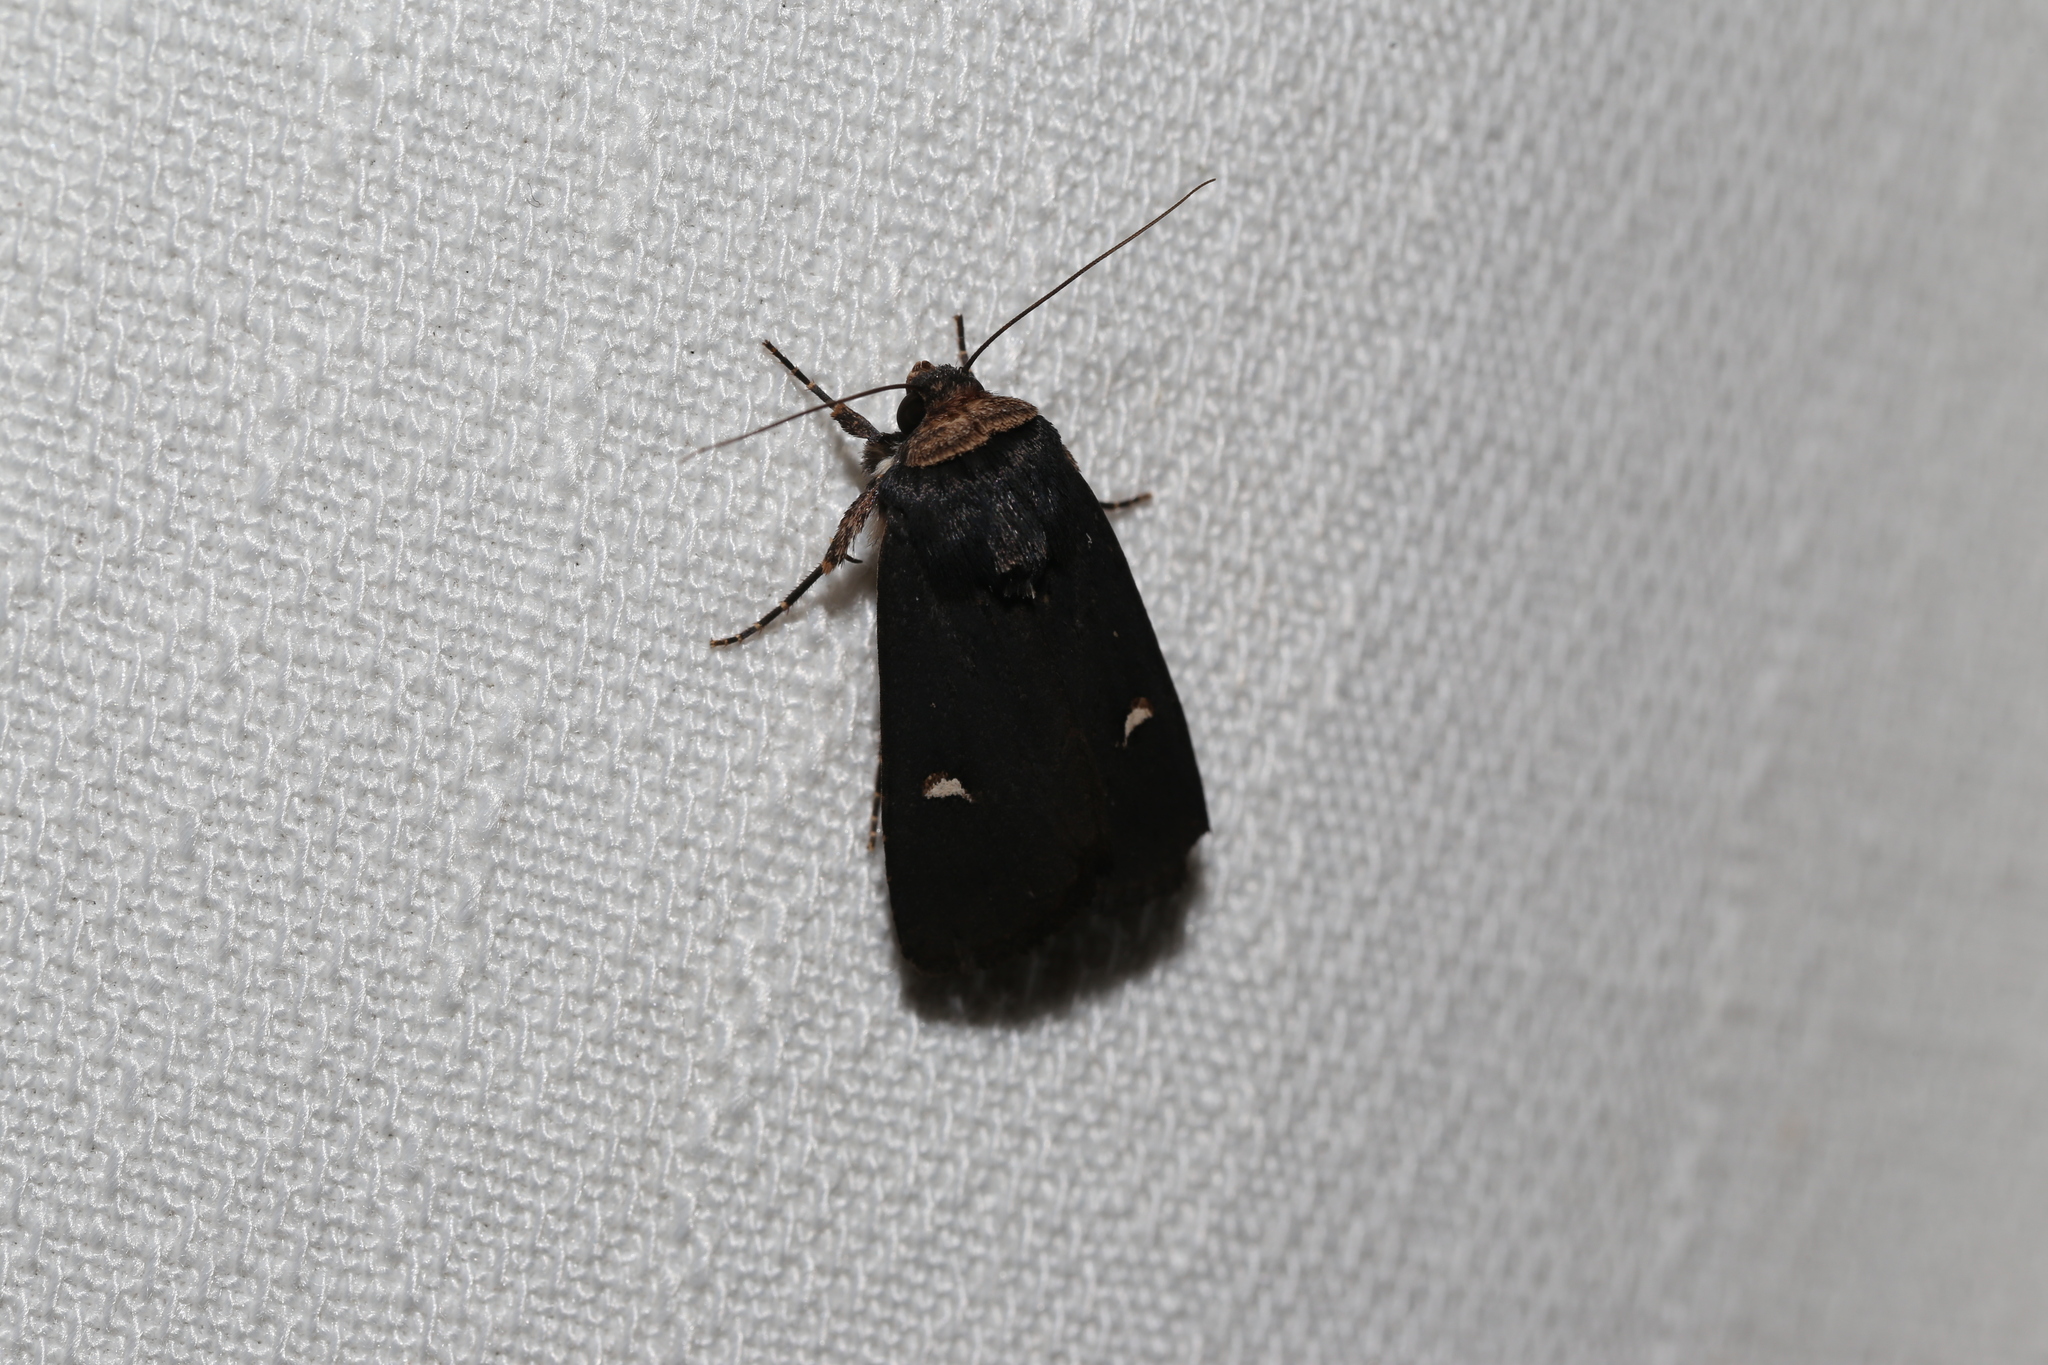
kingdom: Animalia
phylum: Arthropoda
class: Insecta
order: Lepidoptera
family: Noctuidae
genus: Proteuxoa
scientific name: Proteuxoa testaceicollis
